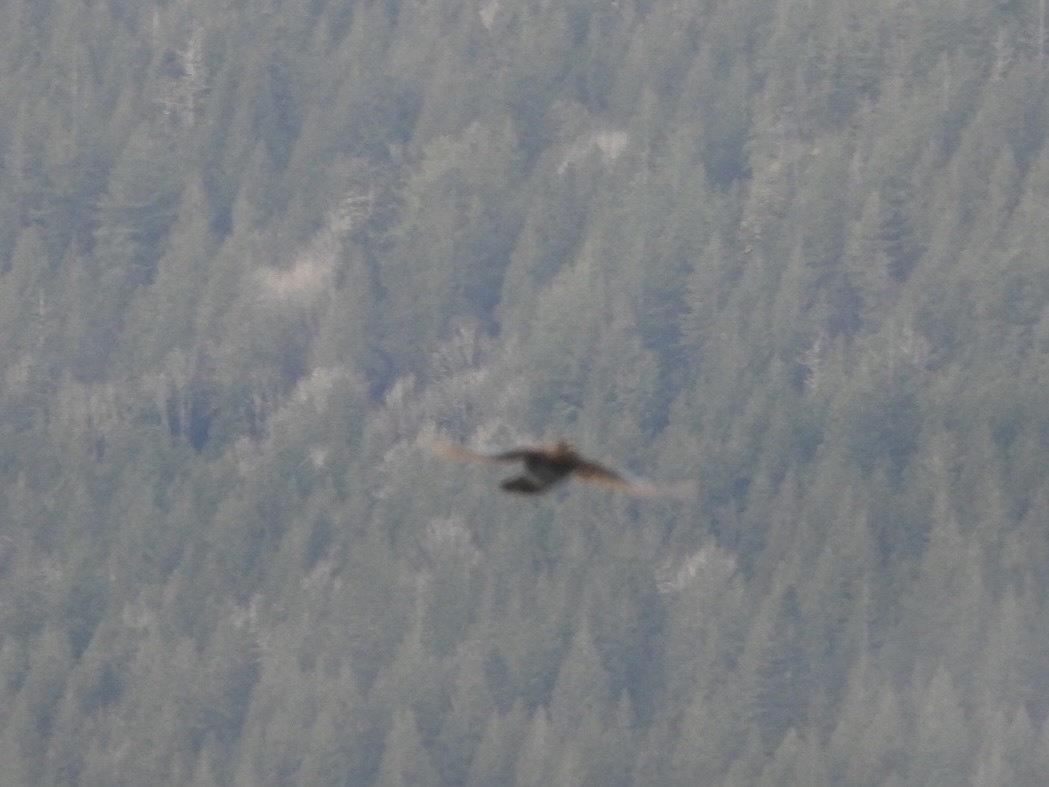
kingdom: Animalia
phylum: Chordata
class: Aves
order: Passeriformes
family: Corvidae
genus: Cyanocitta
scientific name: Cyanocitta stelleri
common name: Steller's jay
